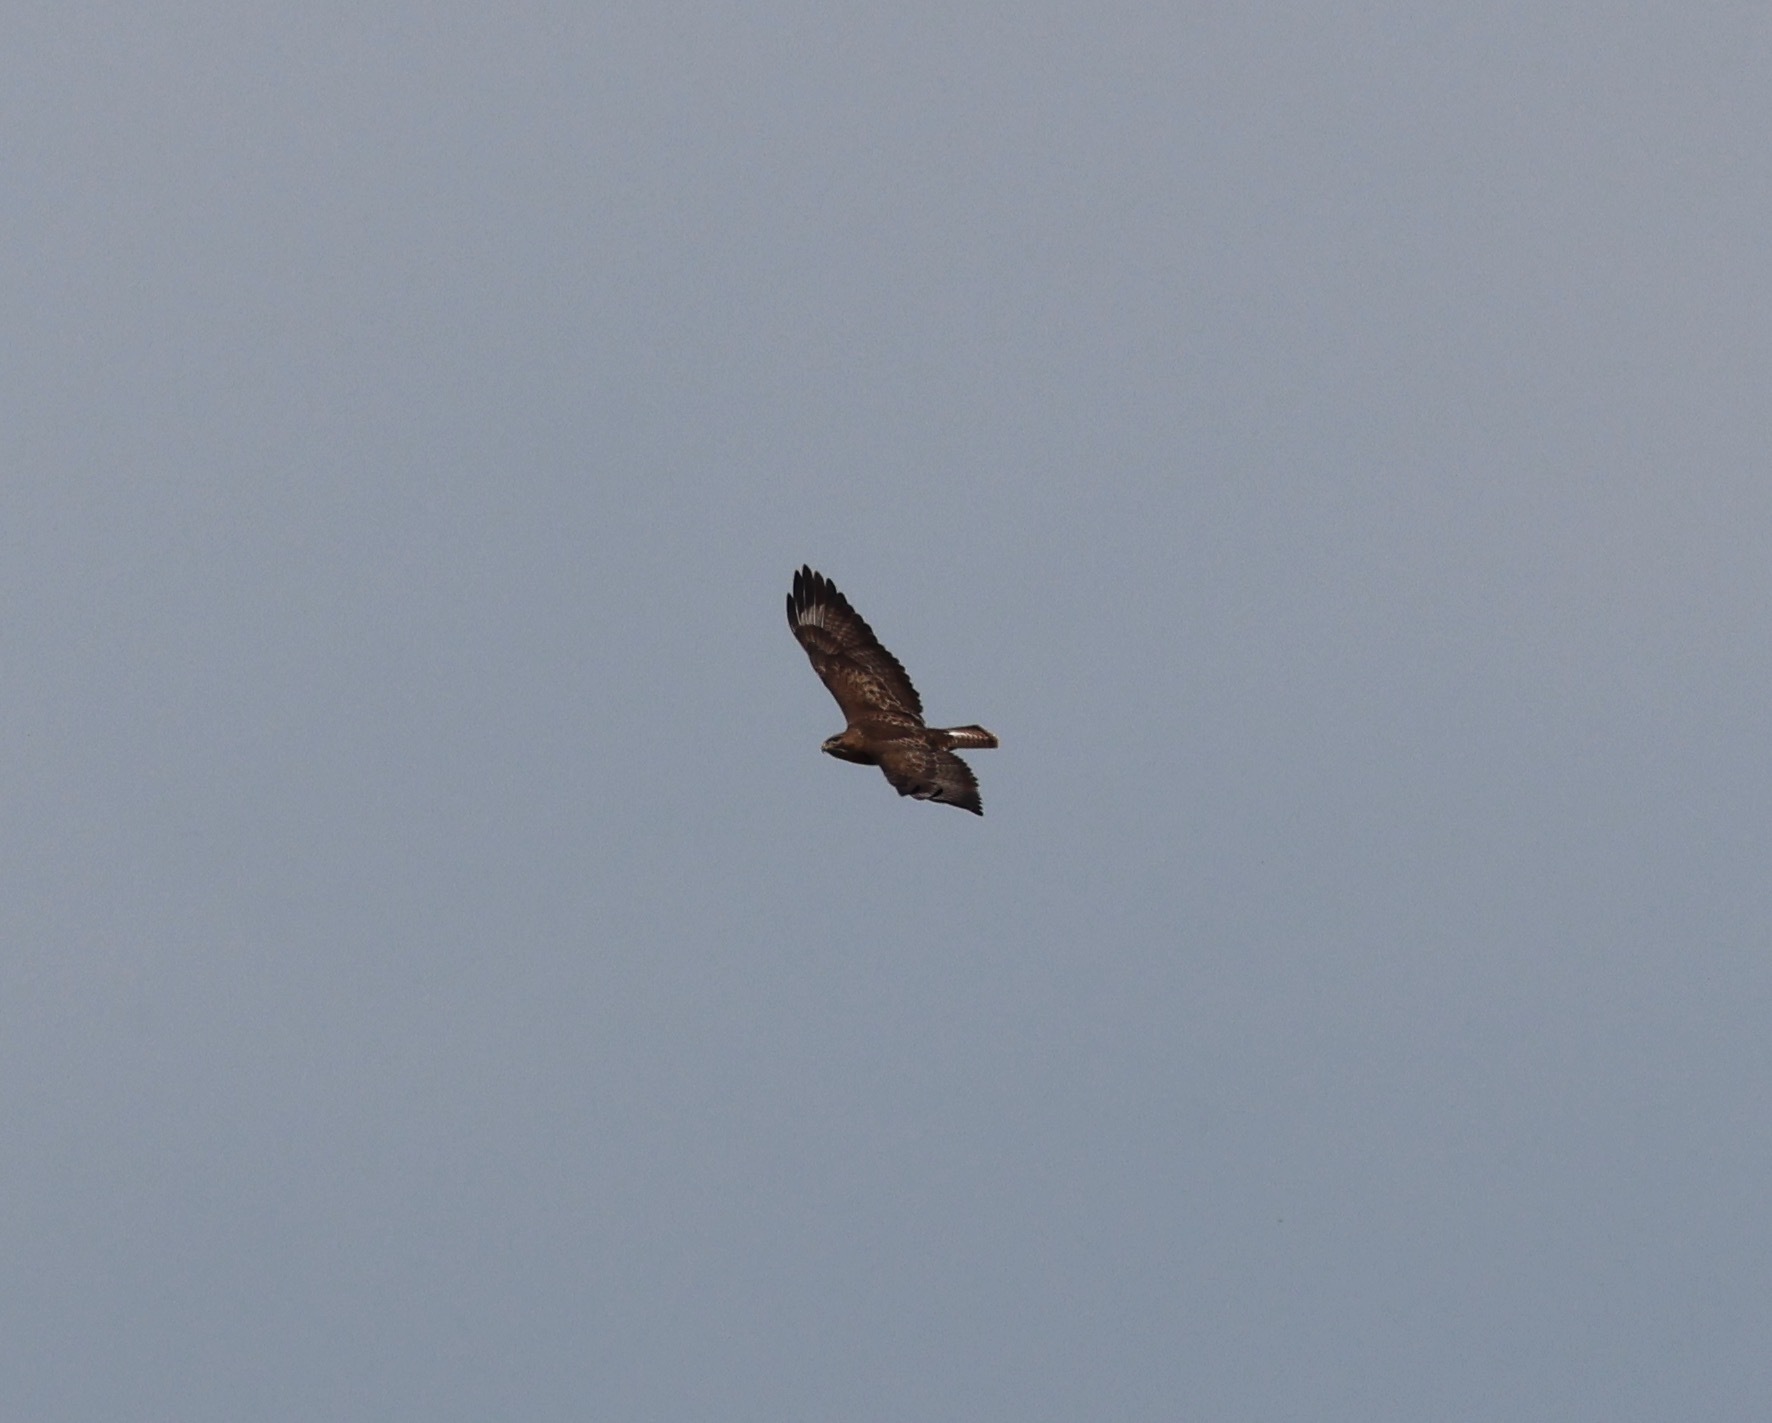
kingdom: Animalia
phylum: Chordata
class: Aves
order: Accipitriformes
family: Accipitridae
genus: Buteo
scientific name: Buteo buteo
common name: Common buzzard
